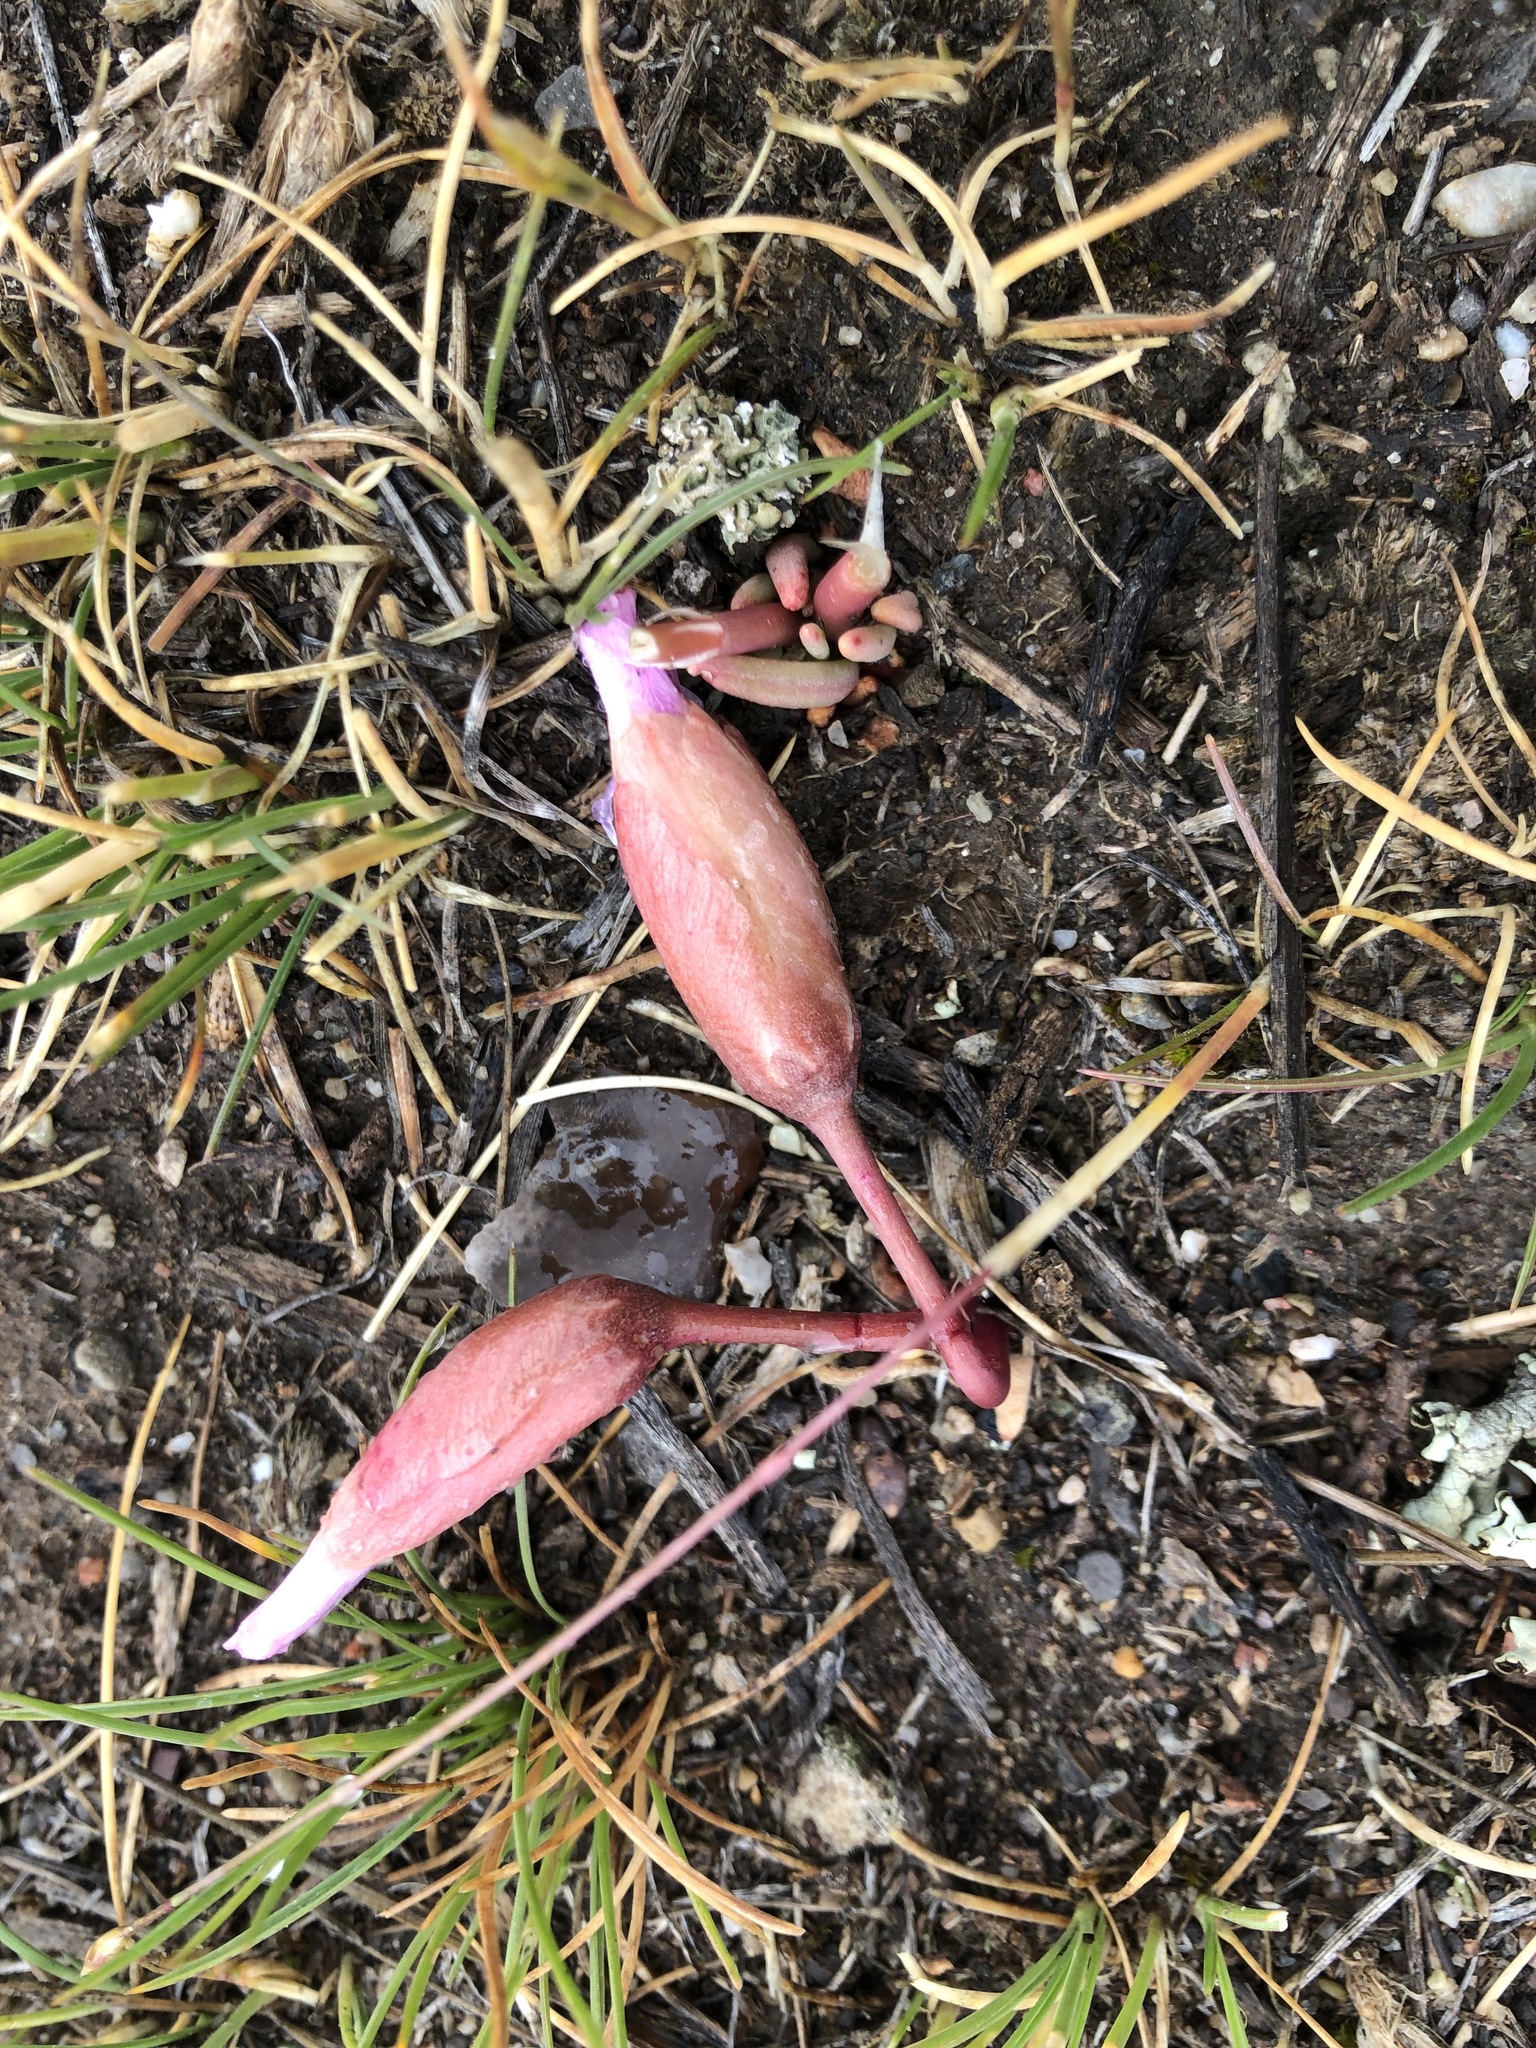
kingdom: Plantae
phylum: Tracheophyta
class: Magnoliopsida
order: Caryophyllales
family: Montiaceae
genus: Lewisia
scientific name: Lewisia rediviva
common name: Bitter-root
